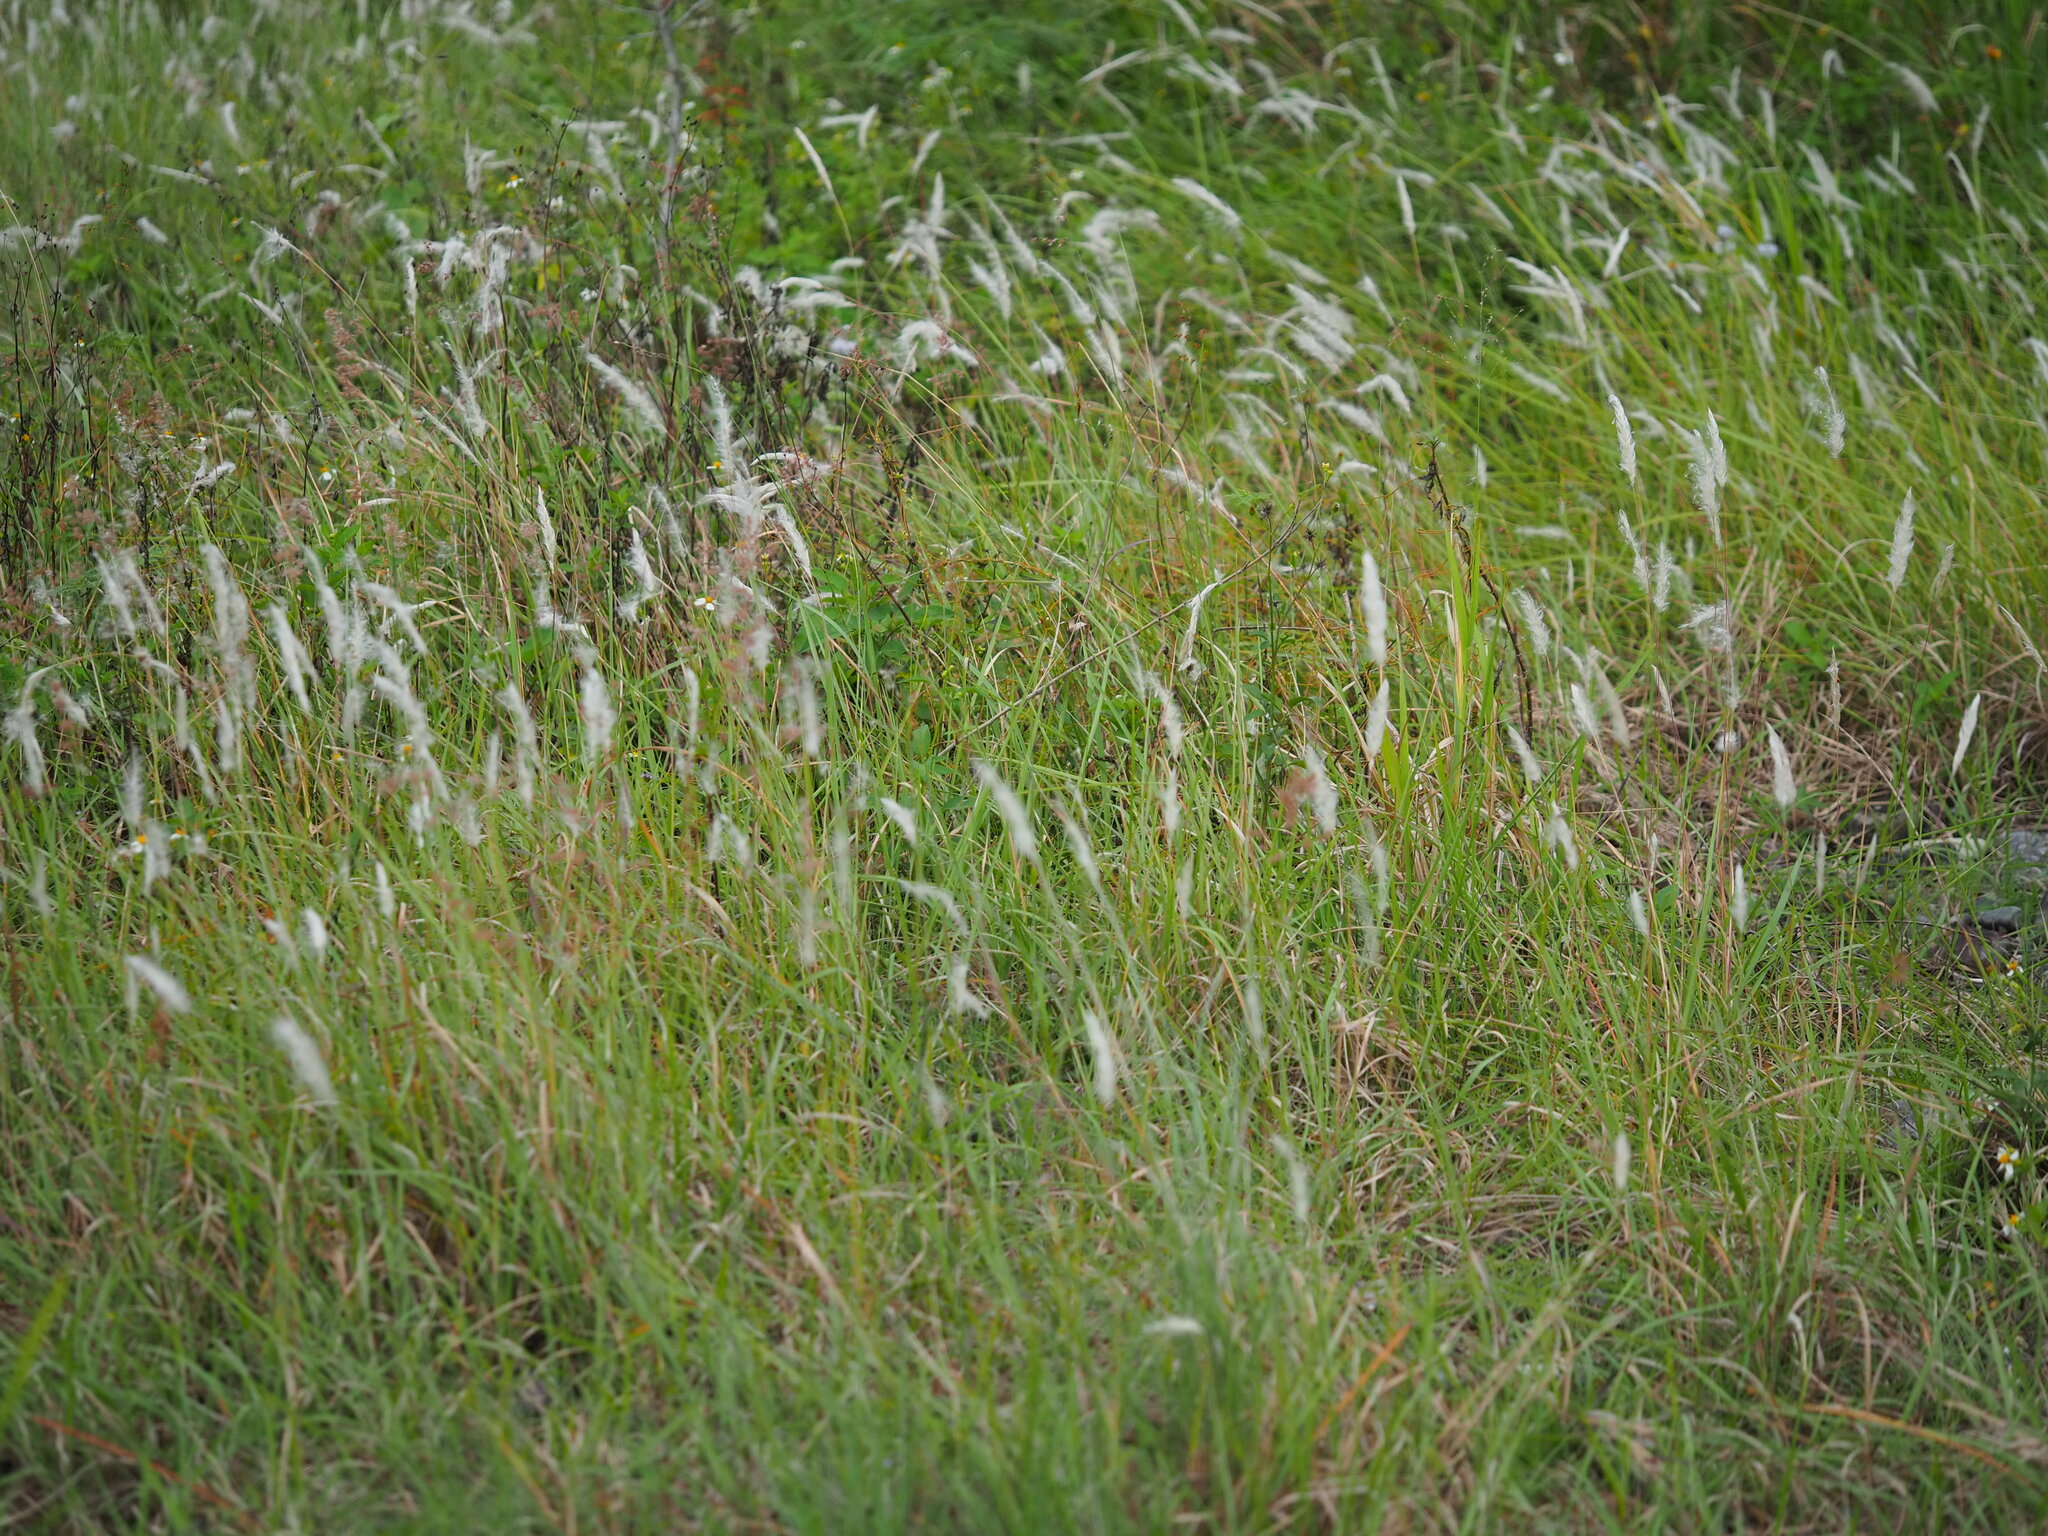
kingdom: Plantae
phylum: Tracheophyta
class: Liliopsida
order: Poales
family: Poaceae
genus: Imperata
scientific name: Imperata cylindrica
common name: Cogongrass
